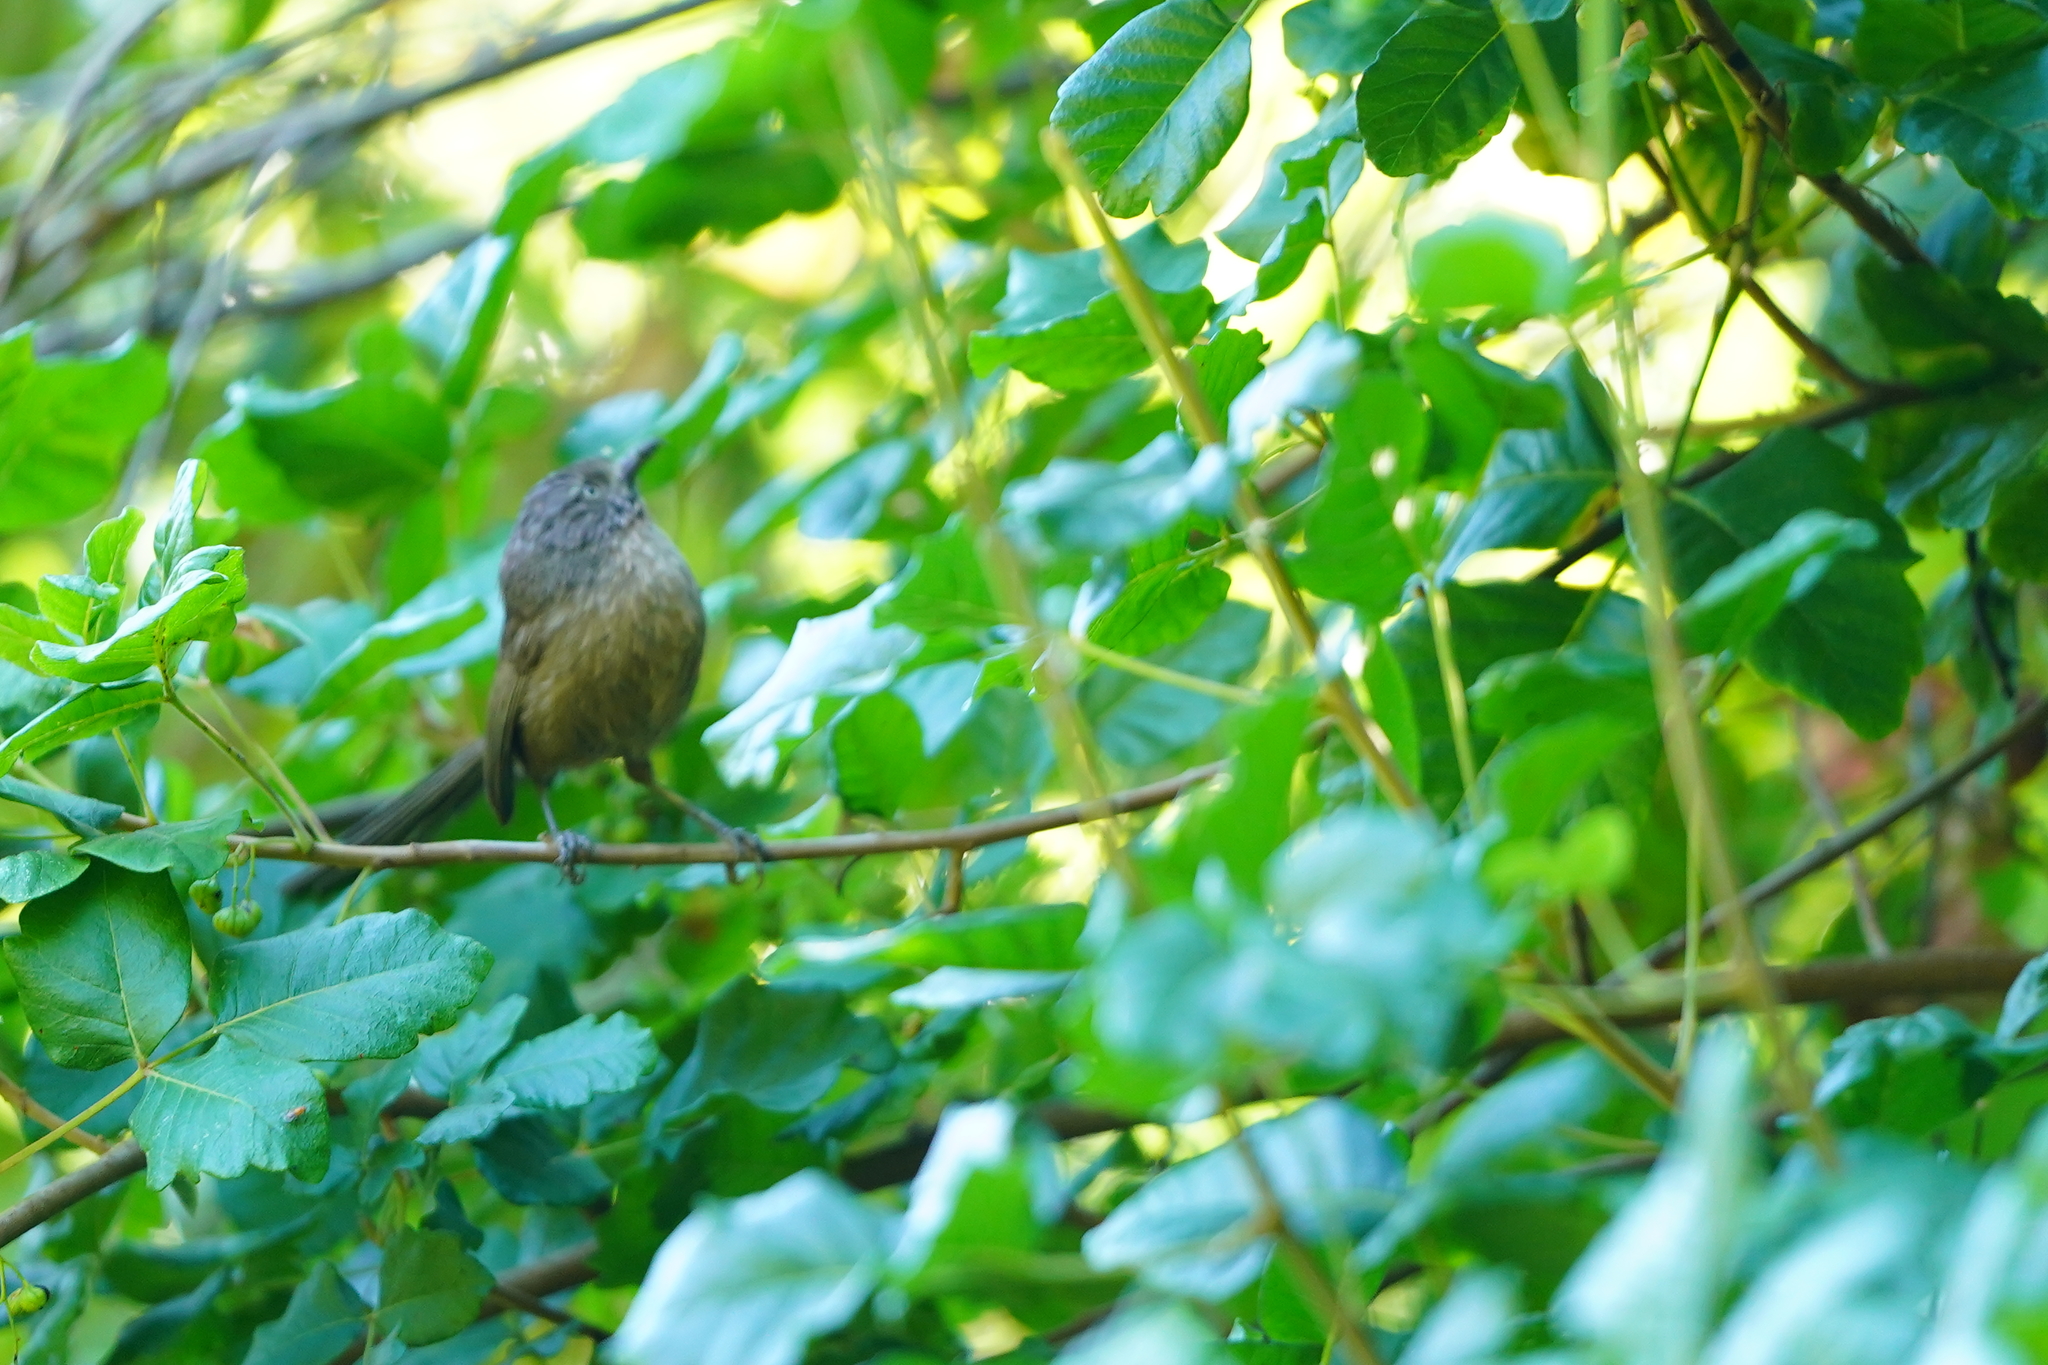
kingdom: Animalia
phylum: Chordata
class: Aves
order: Passeriformes
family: Sylviidae
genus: Chamaea
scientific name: Chamaea fasciata
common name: Wrentit
